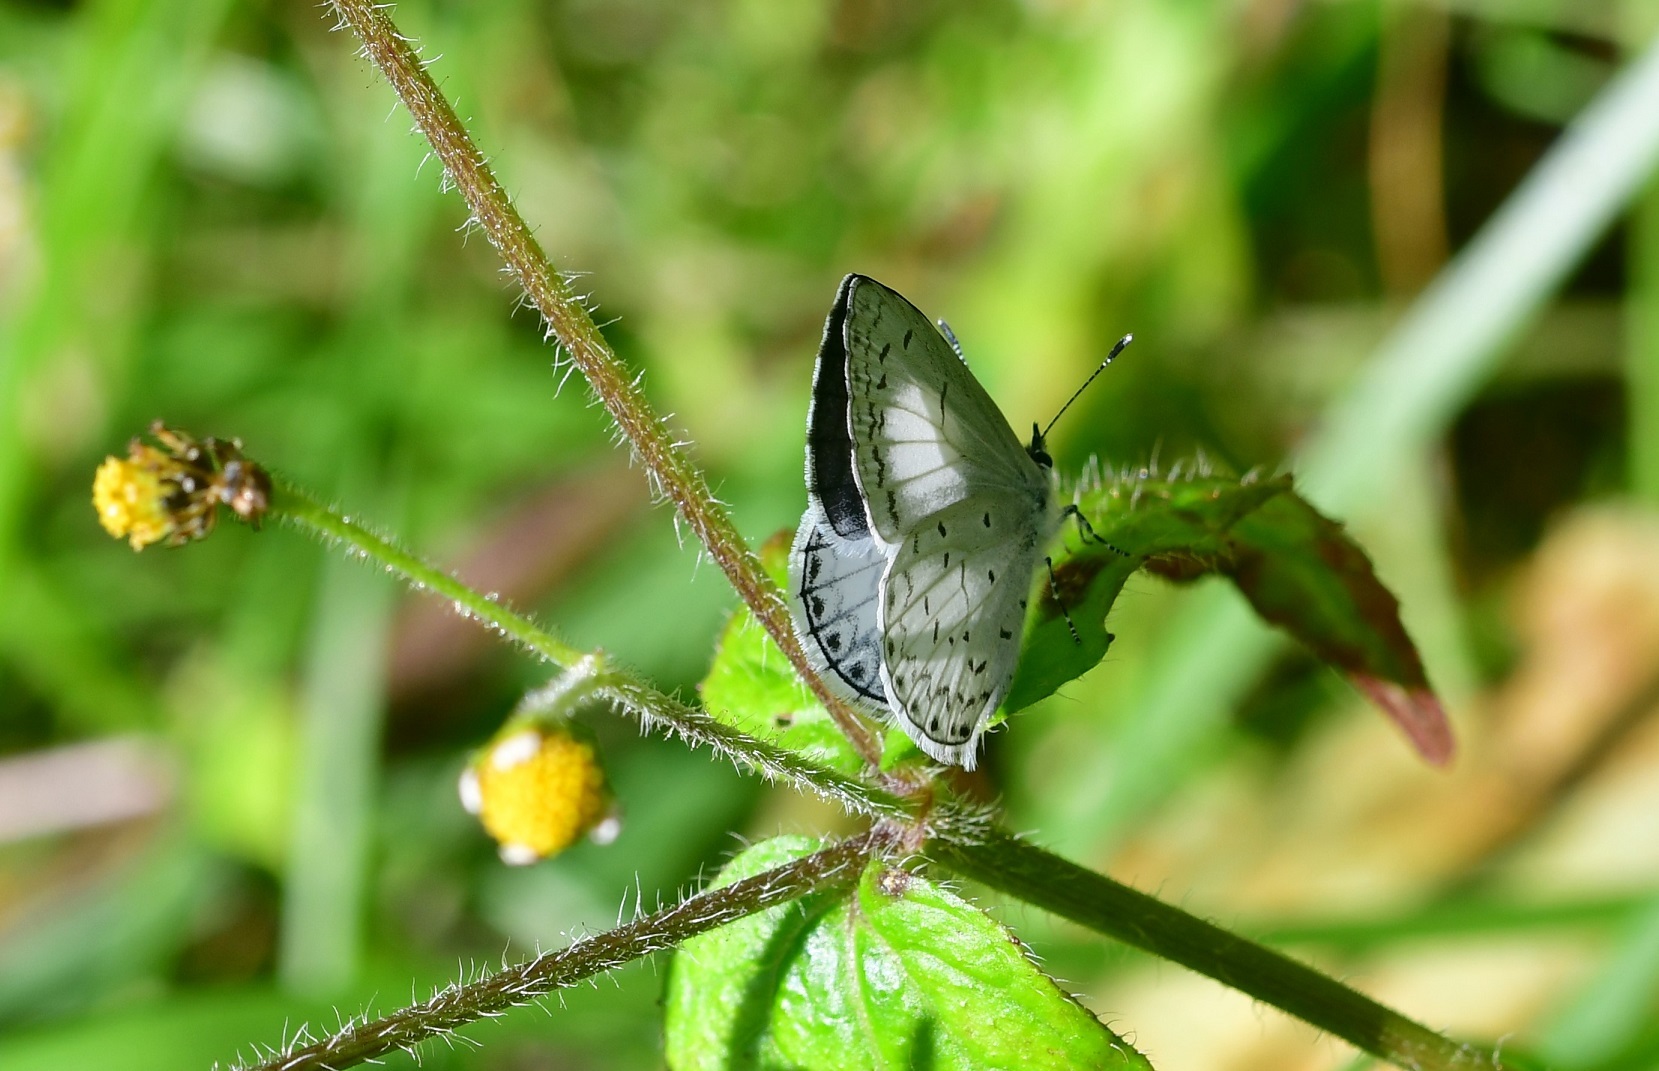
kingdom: Animalia
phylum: Arthropoda
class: Insecta
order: Lepidoptera
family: Lycaenidae
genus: Celastrina
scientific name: Celastrina ladon
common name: Spring azure
